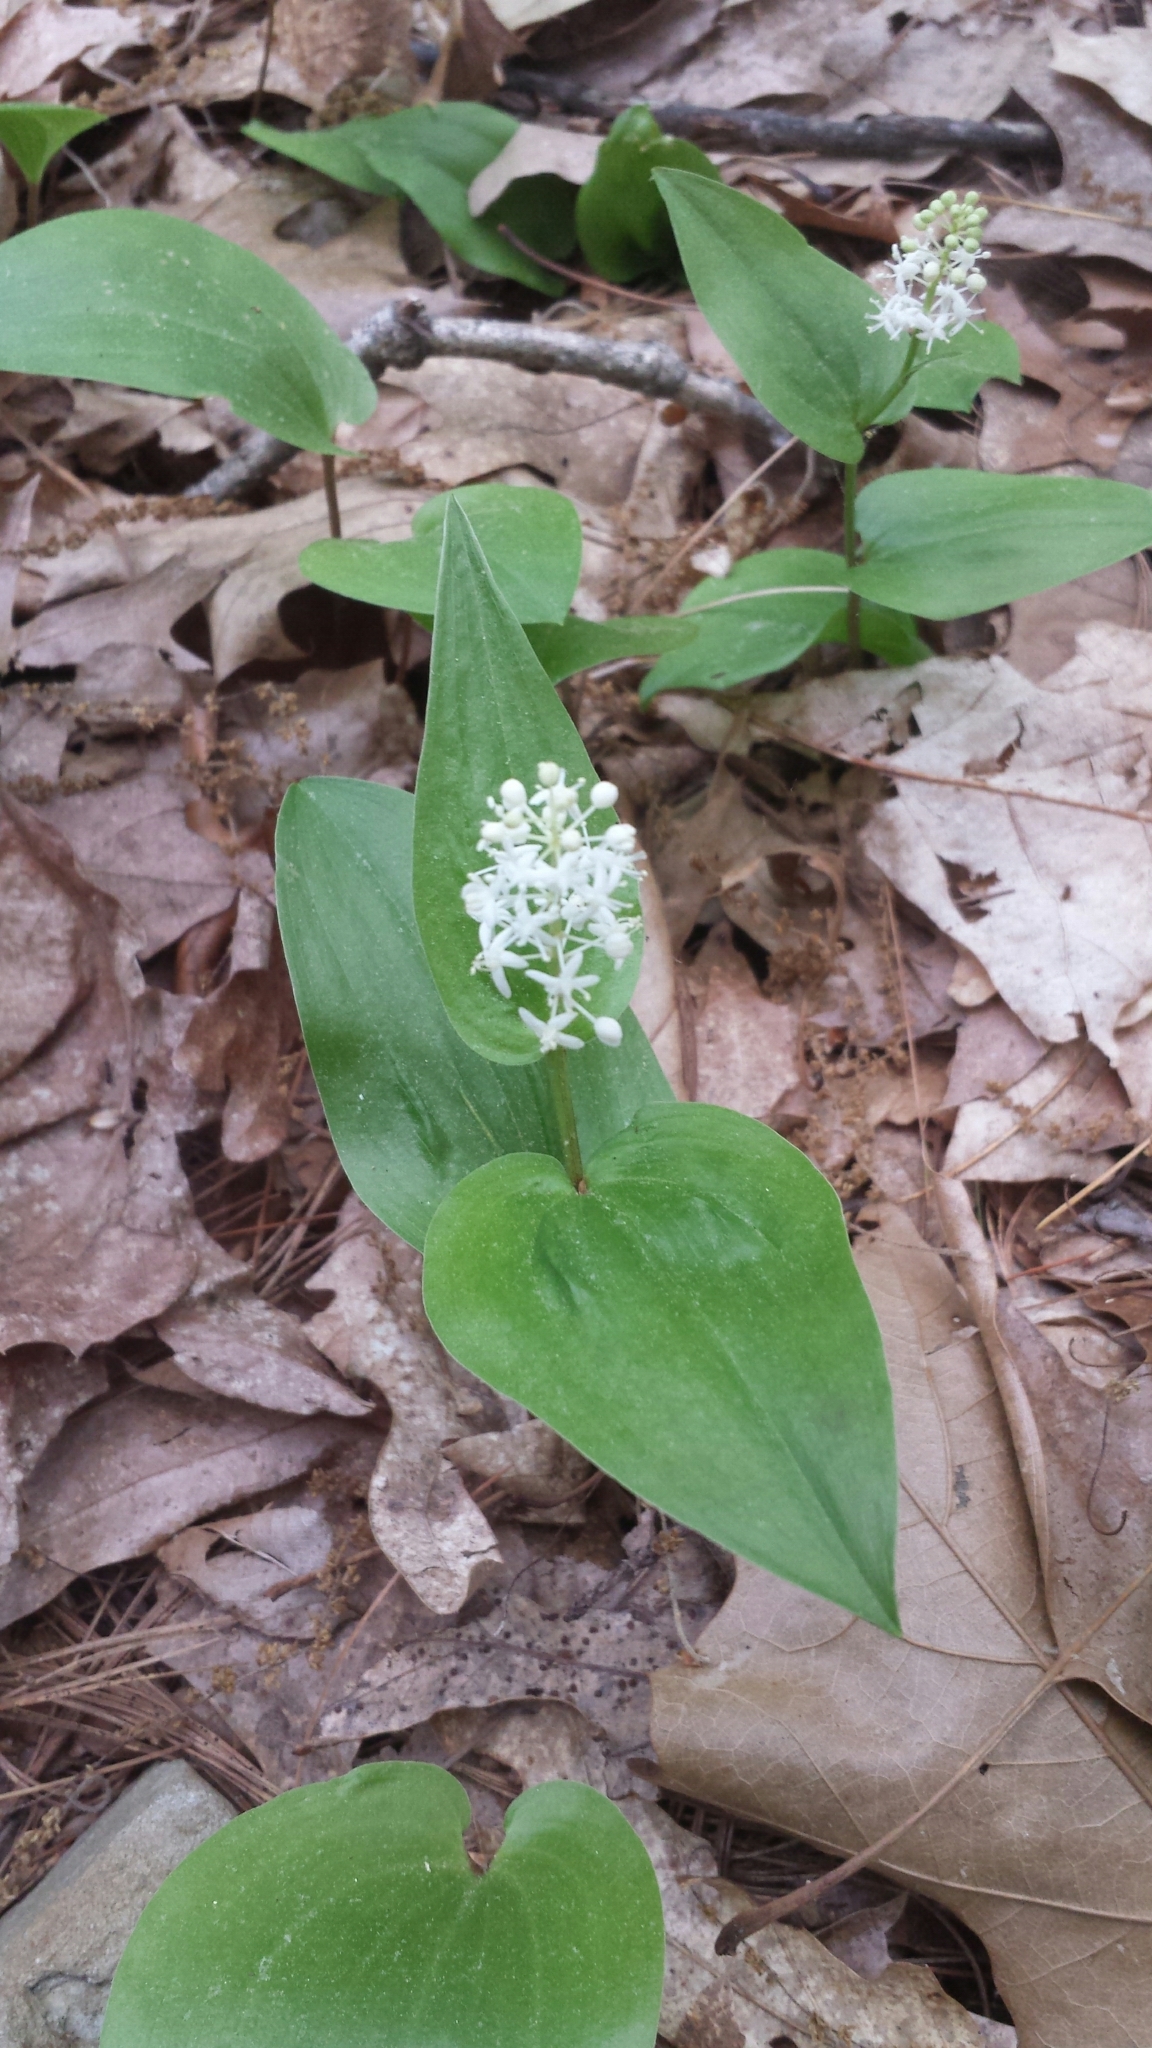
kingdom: Plantae
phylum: Tracheophyta
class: Liliopsida
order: Asparagales
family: Asparagaceae
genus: Maianthemum
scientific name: Maianthemum canadense
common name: False lily-of-the-valley
